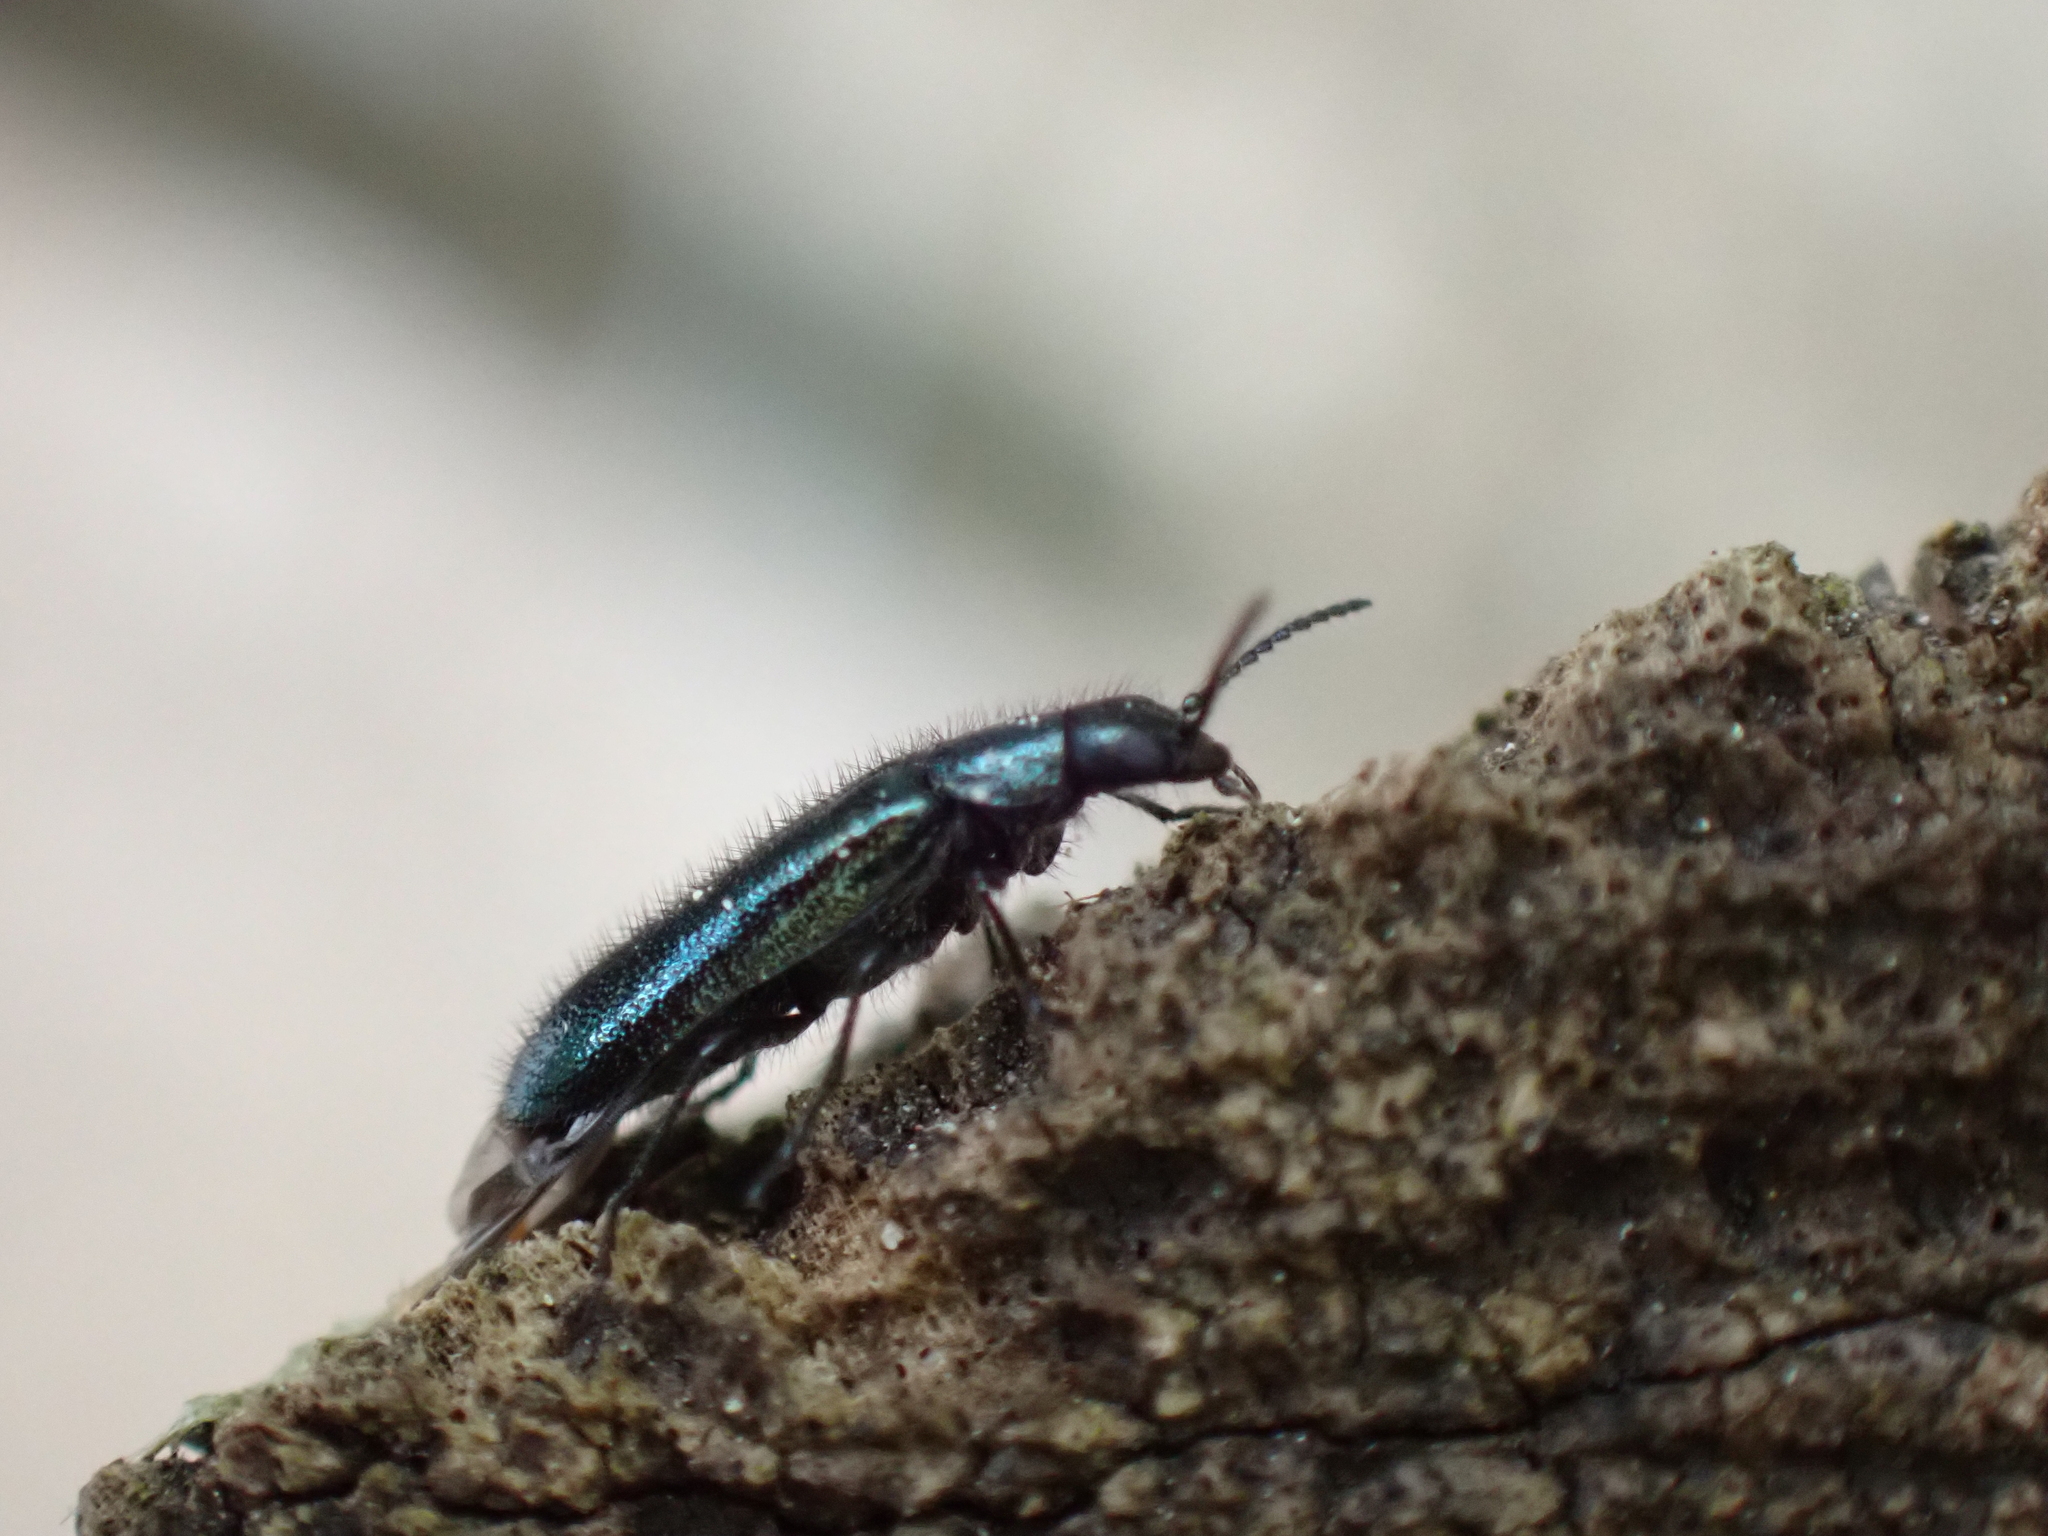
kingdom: Animalia
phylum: Arthropoda
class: Insecta
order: Coleoptera
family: Melyridae
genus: Dasytes
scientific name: Dasytes caeruleus
